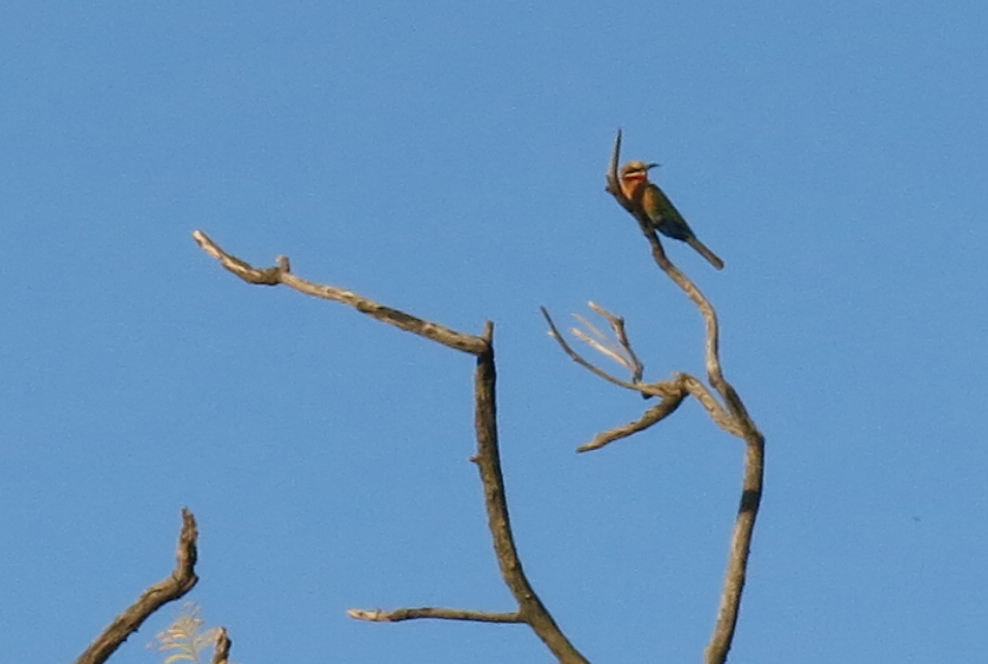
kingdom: Animalia
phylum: Chordata
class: Aves
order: Coraciiformes
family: Meropidae
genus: Merops
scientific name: Merops bullockoides
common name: White-fronted bee-eater
